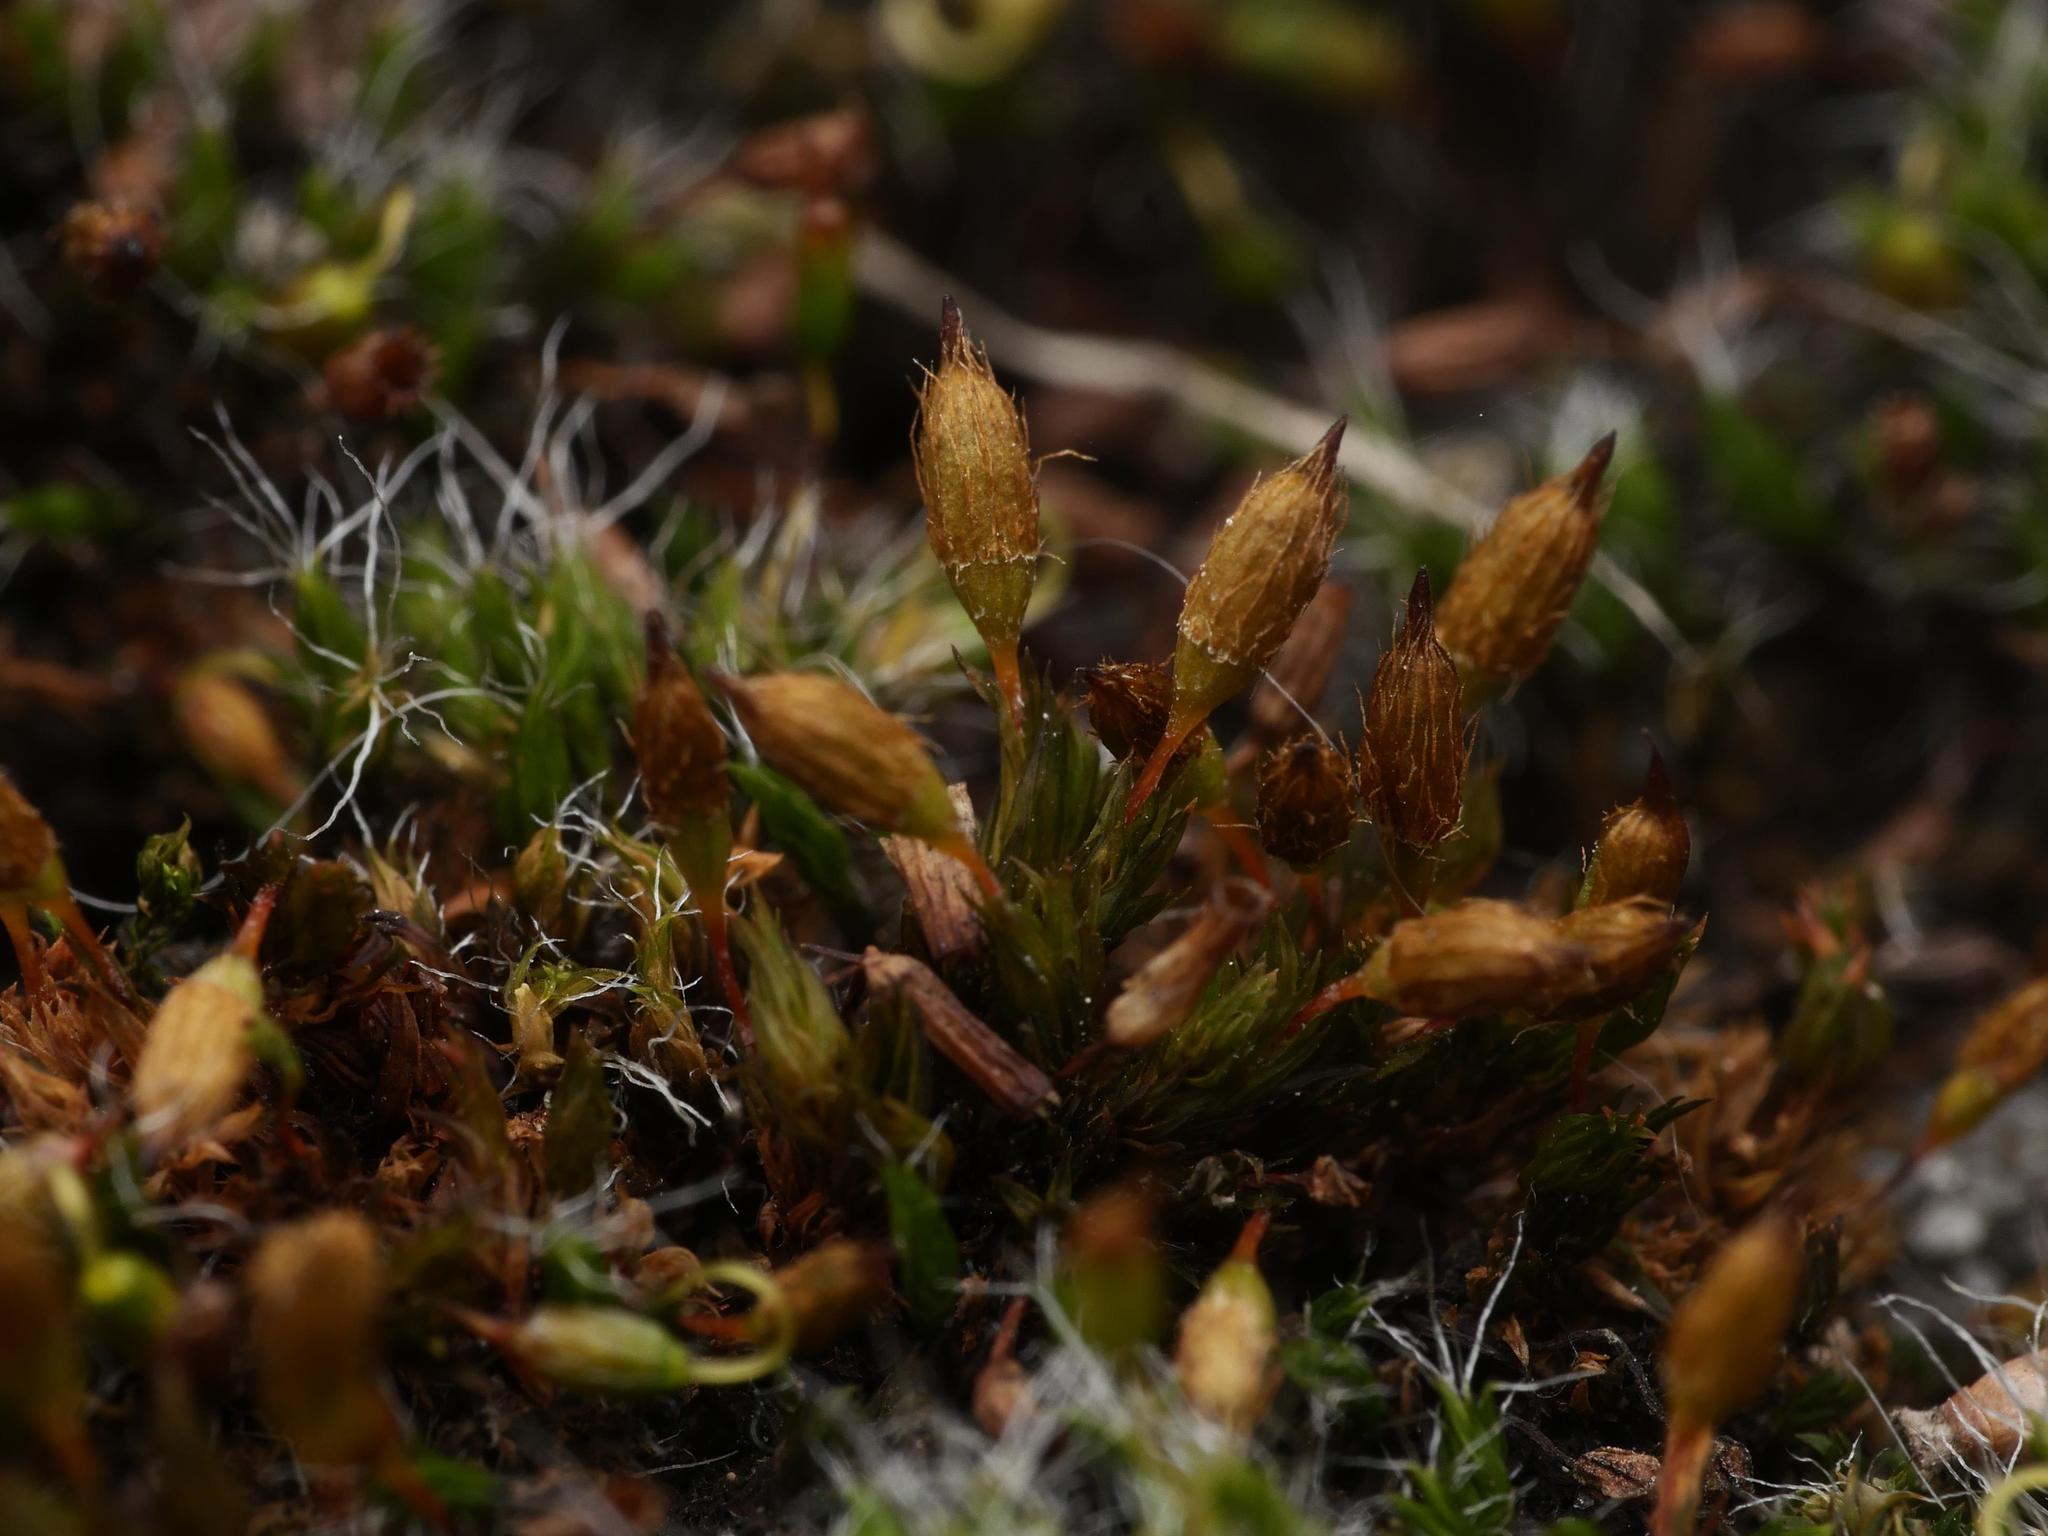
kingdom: Plantae
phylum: Bryophyta
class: Bryopsida
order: Orthotrichales
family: Orthotrichaceae
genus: Orthotrichum
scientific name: Orthotrichum anomalum
